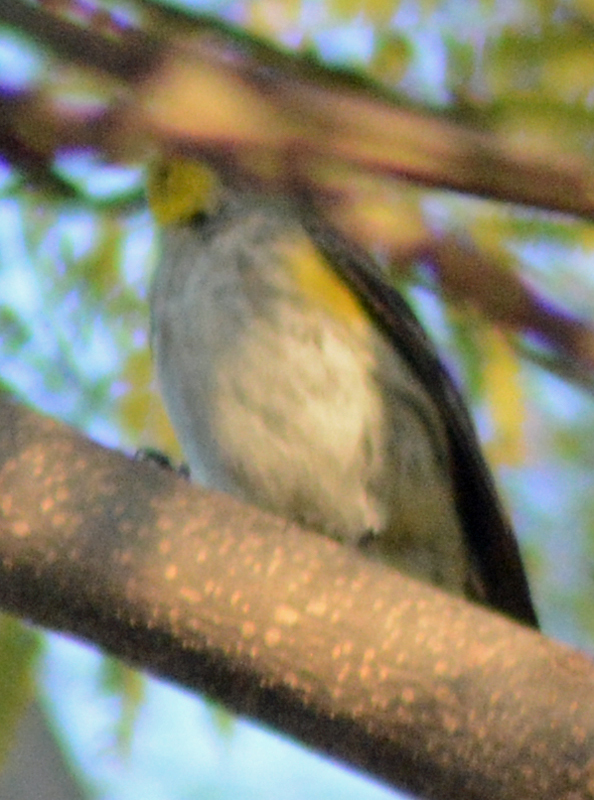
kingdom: Animalia
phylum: Chordata
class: Aves
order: Passeriformes
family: Parulidae
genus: Setophaga
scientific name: Setophaga coronata
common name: Myrtle warbler
